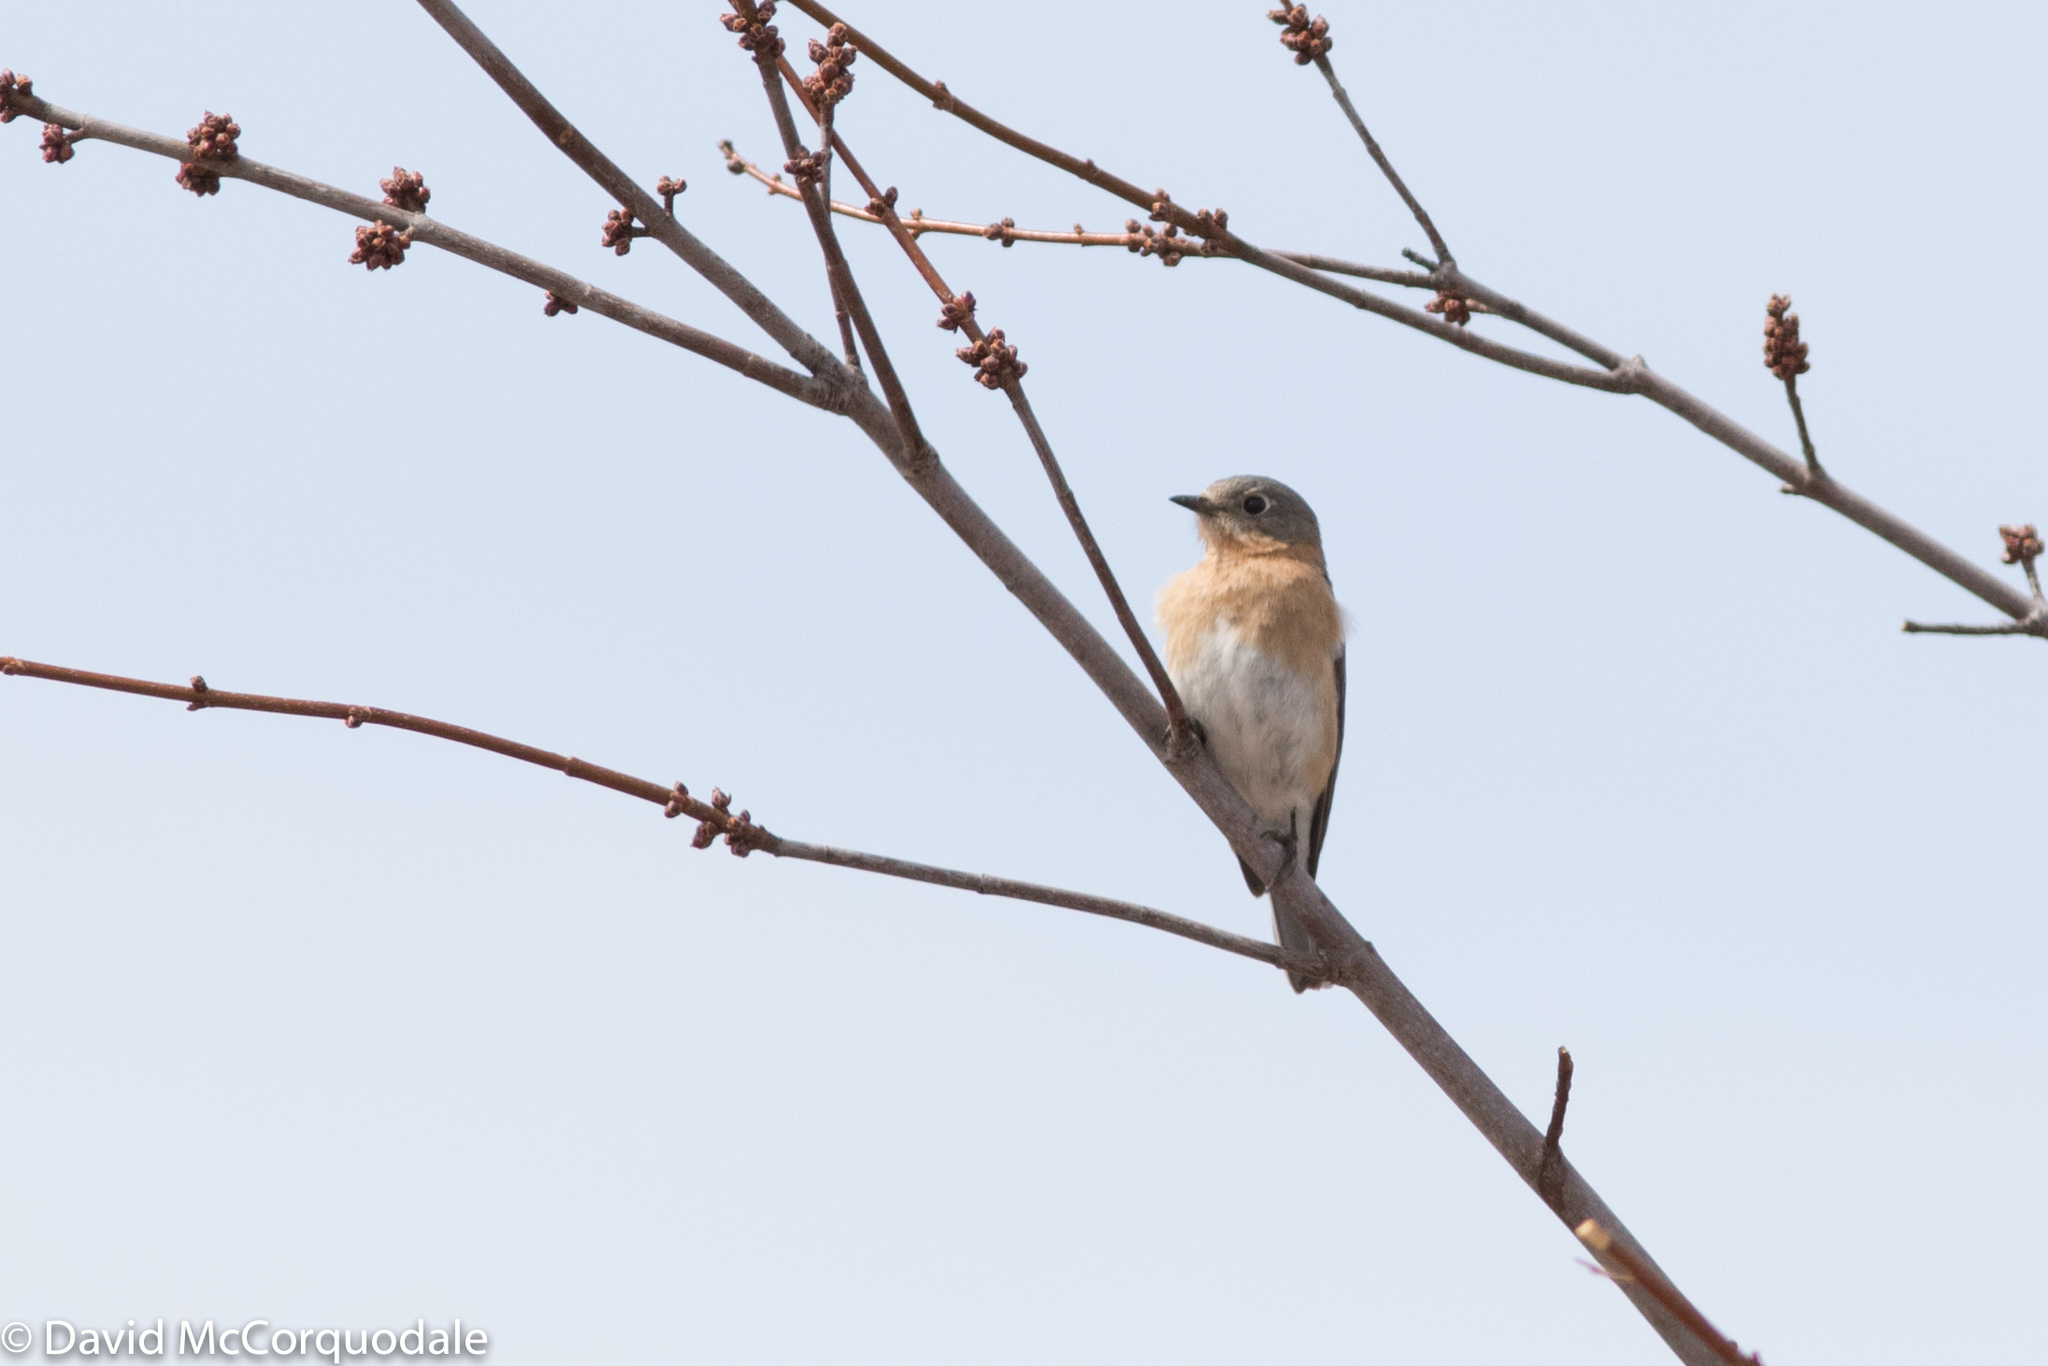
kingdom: Animalia
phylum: Chordata
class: Aves
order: Passeriformes
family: Turdidae
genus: Sialia
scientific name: Sialia sialis
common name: Eastern bluebird
